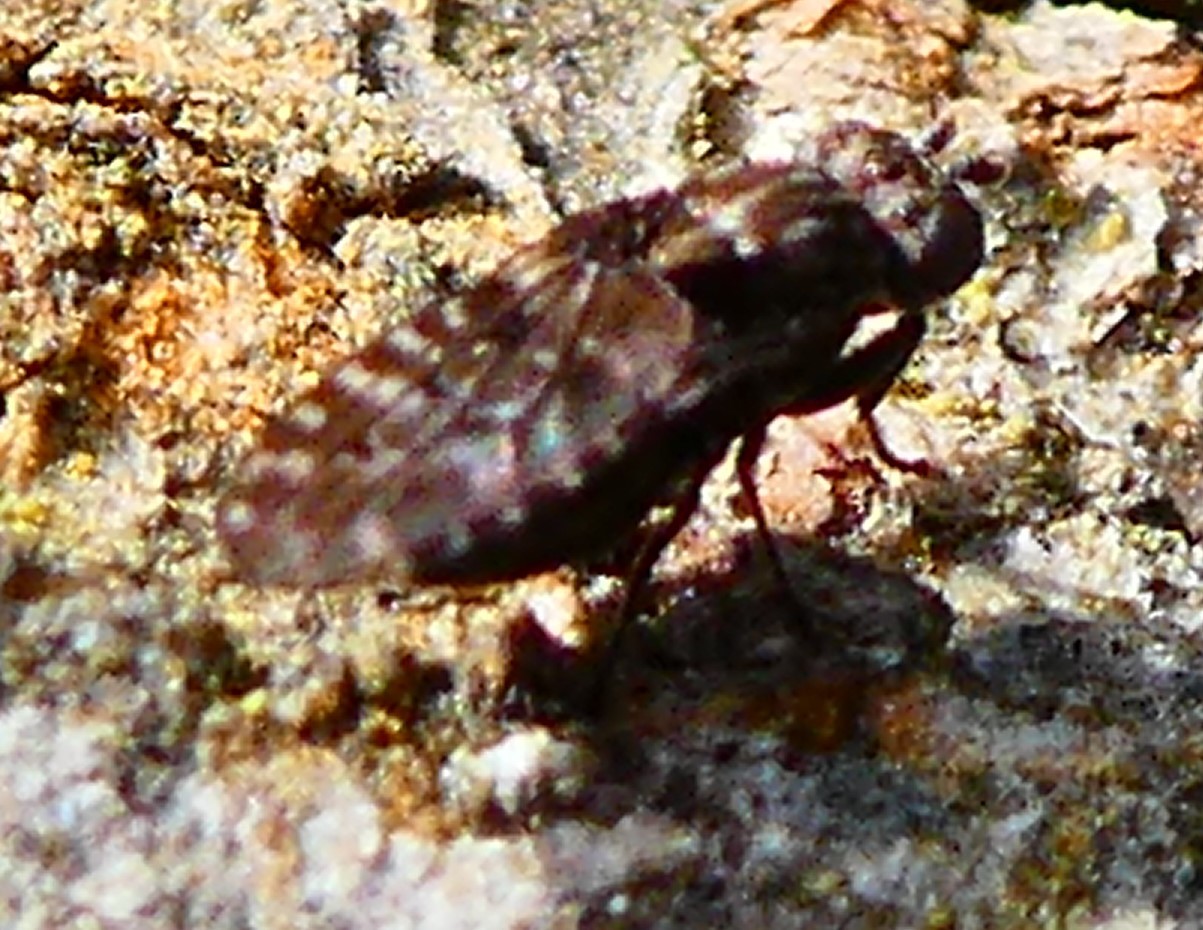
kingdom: Animalia
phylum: Arthropoda
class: Insecta
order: Diptera
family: Ephydridae
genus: Limnellia
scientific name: Limnellia quadrata
